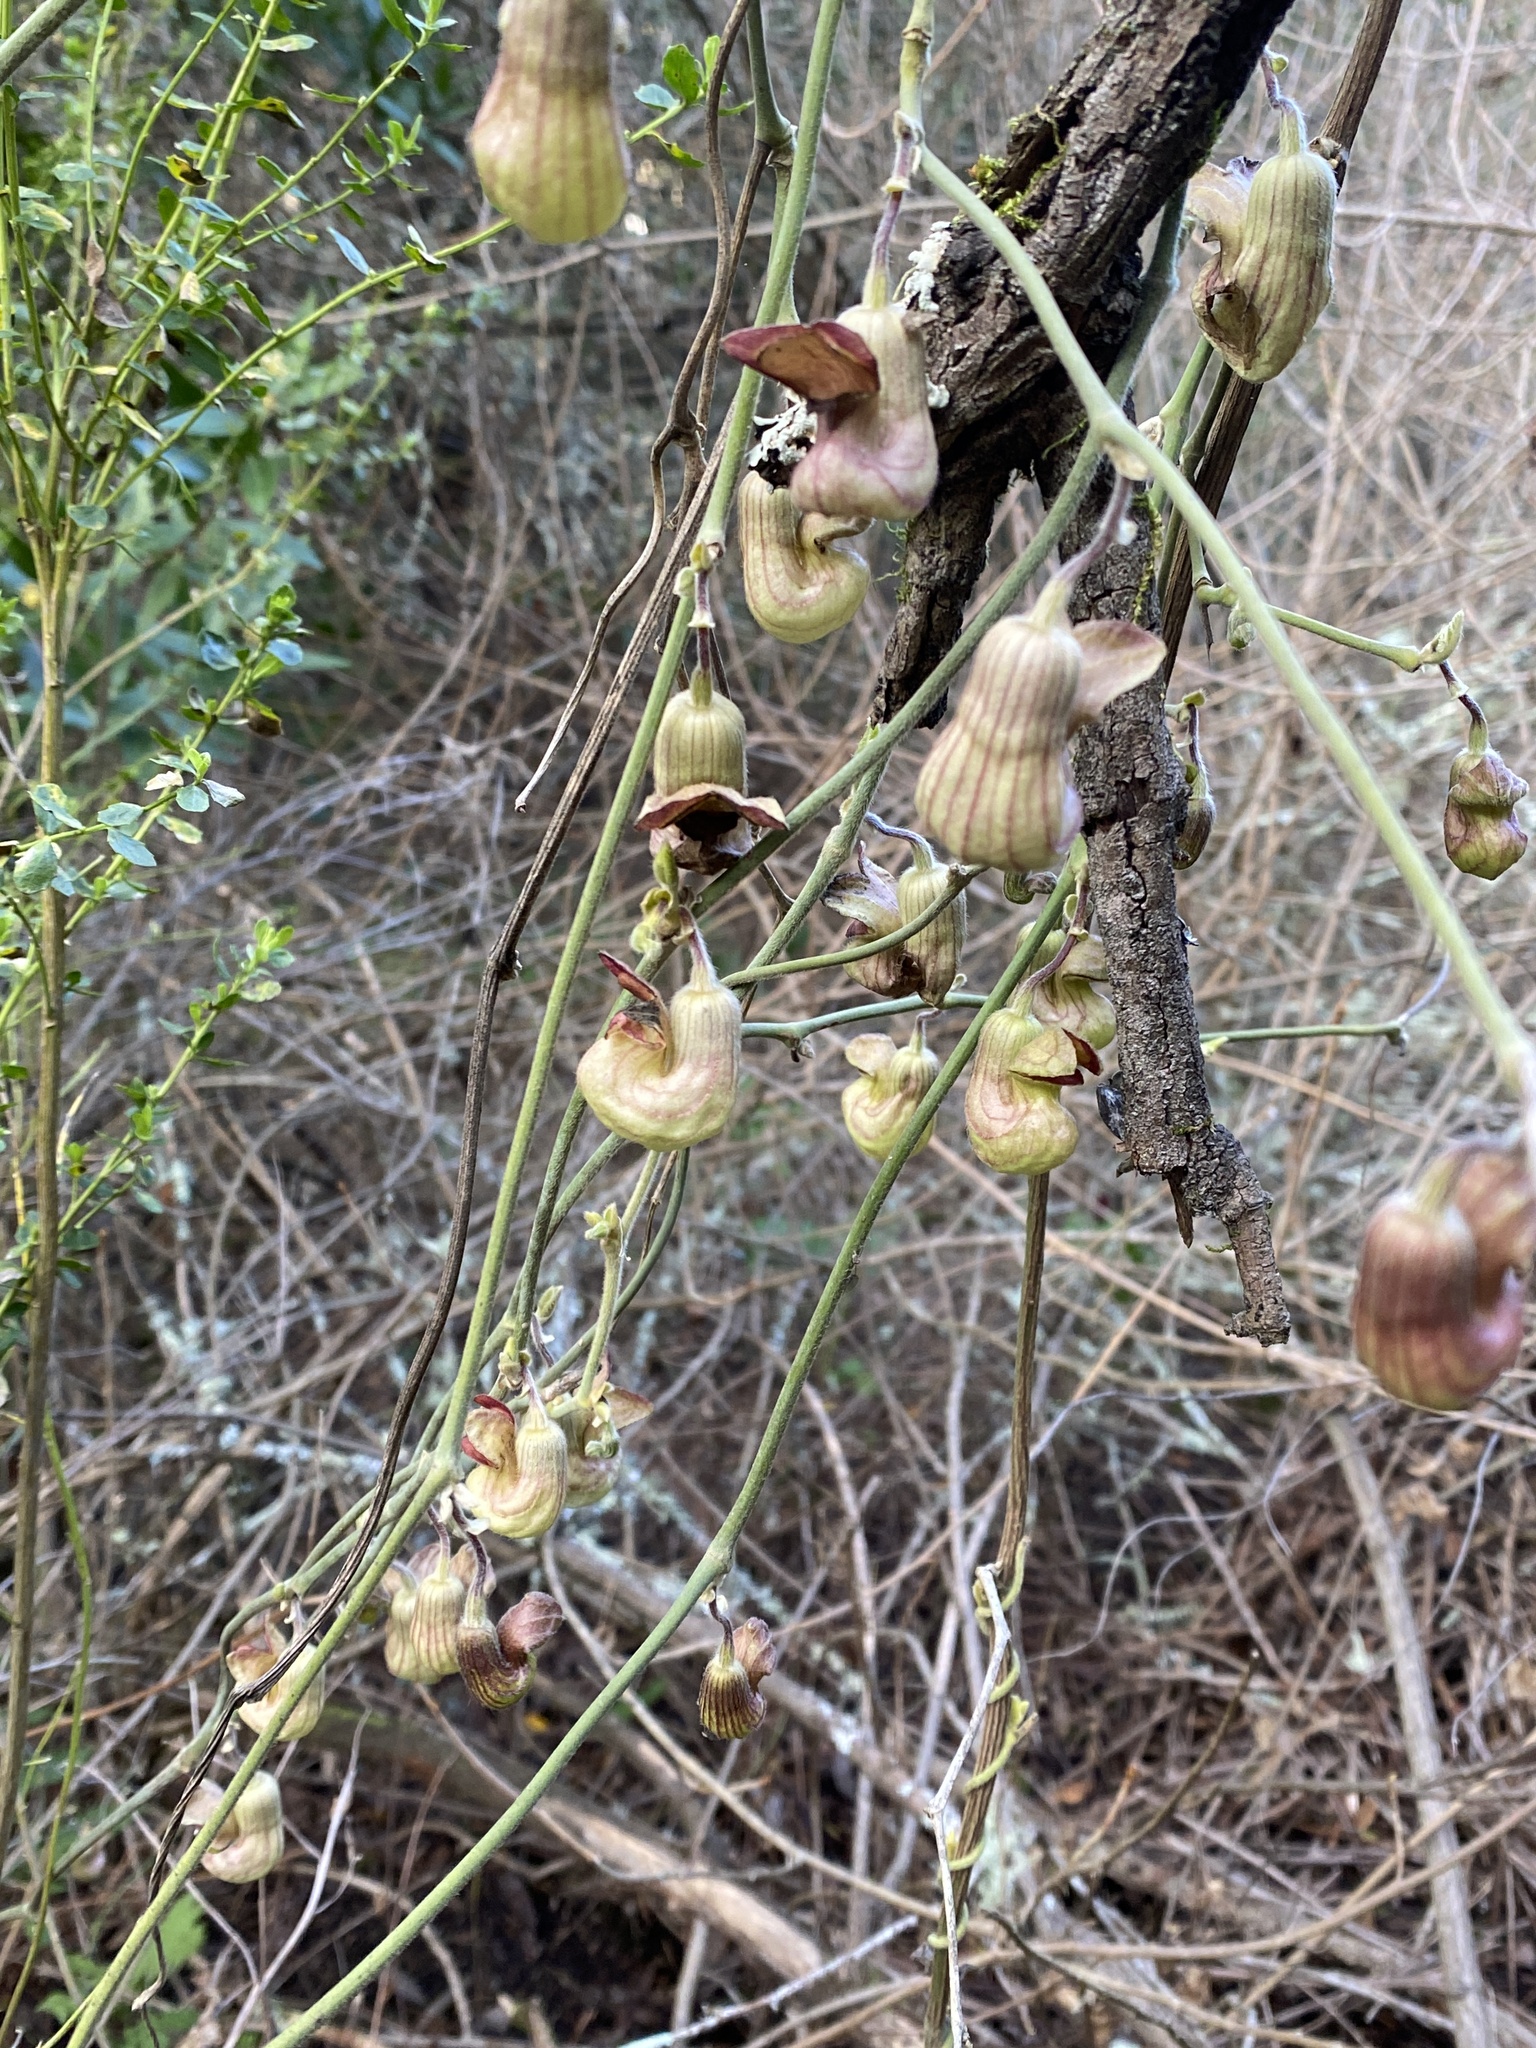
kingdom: Plantae
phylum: Tracheophyta
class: Magnoliopsida
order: Piperales
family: Aristolochiaceae
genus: Isotrema
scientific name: Isotrema californicum
